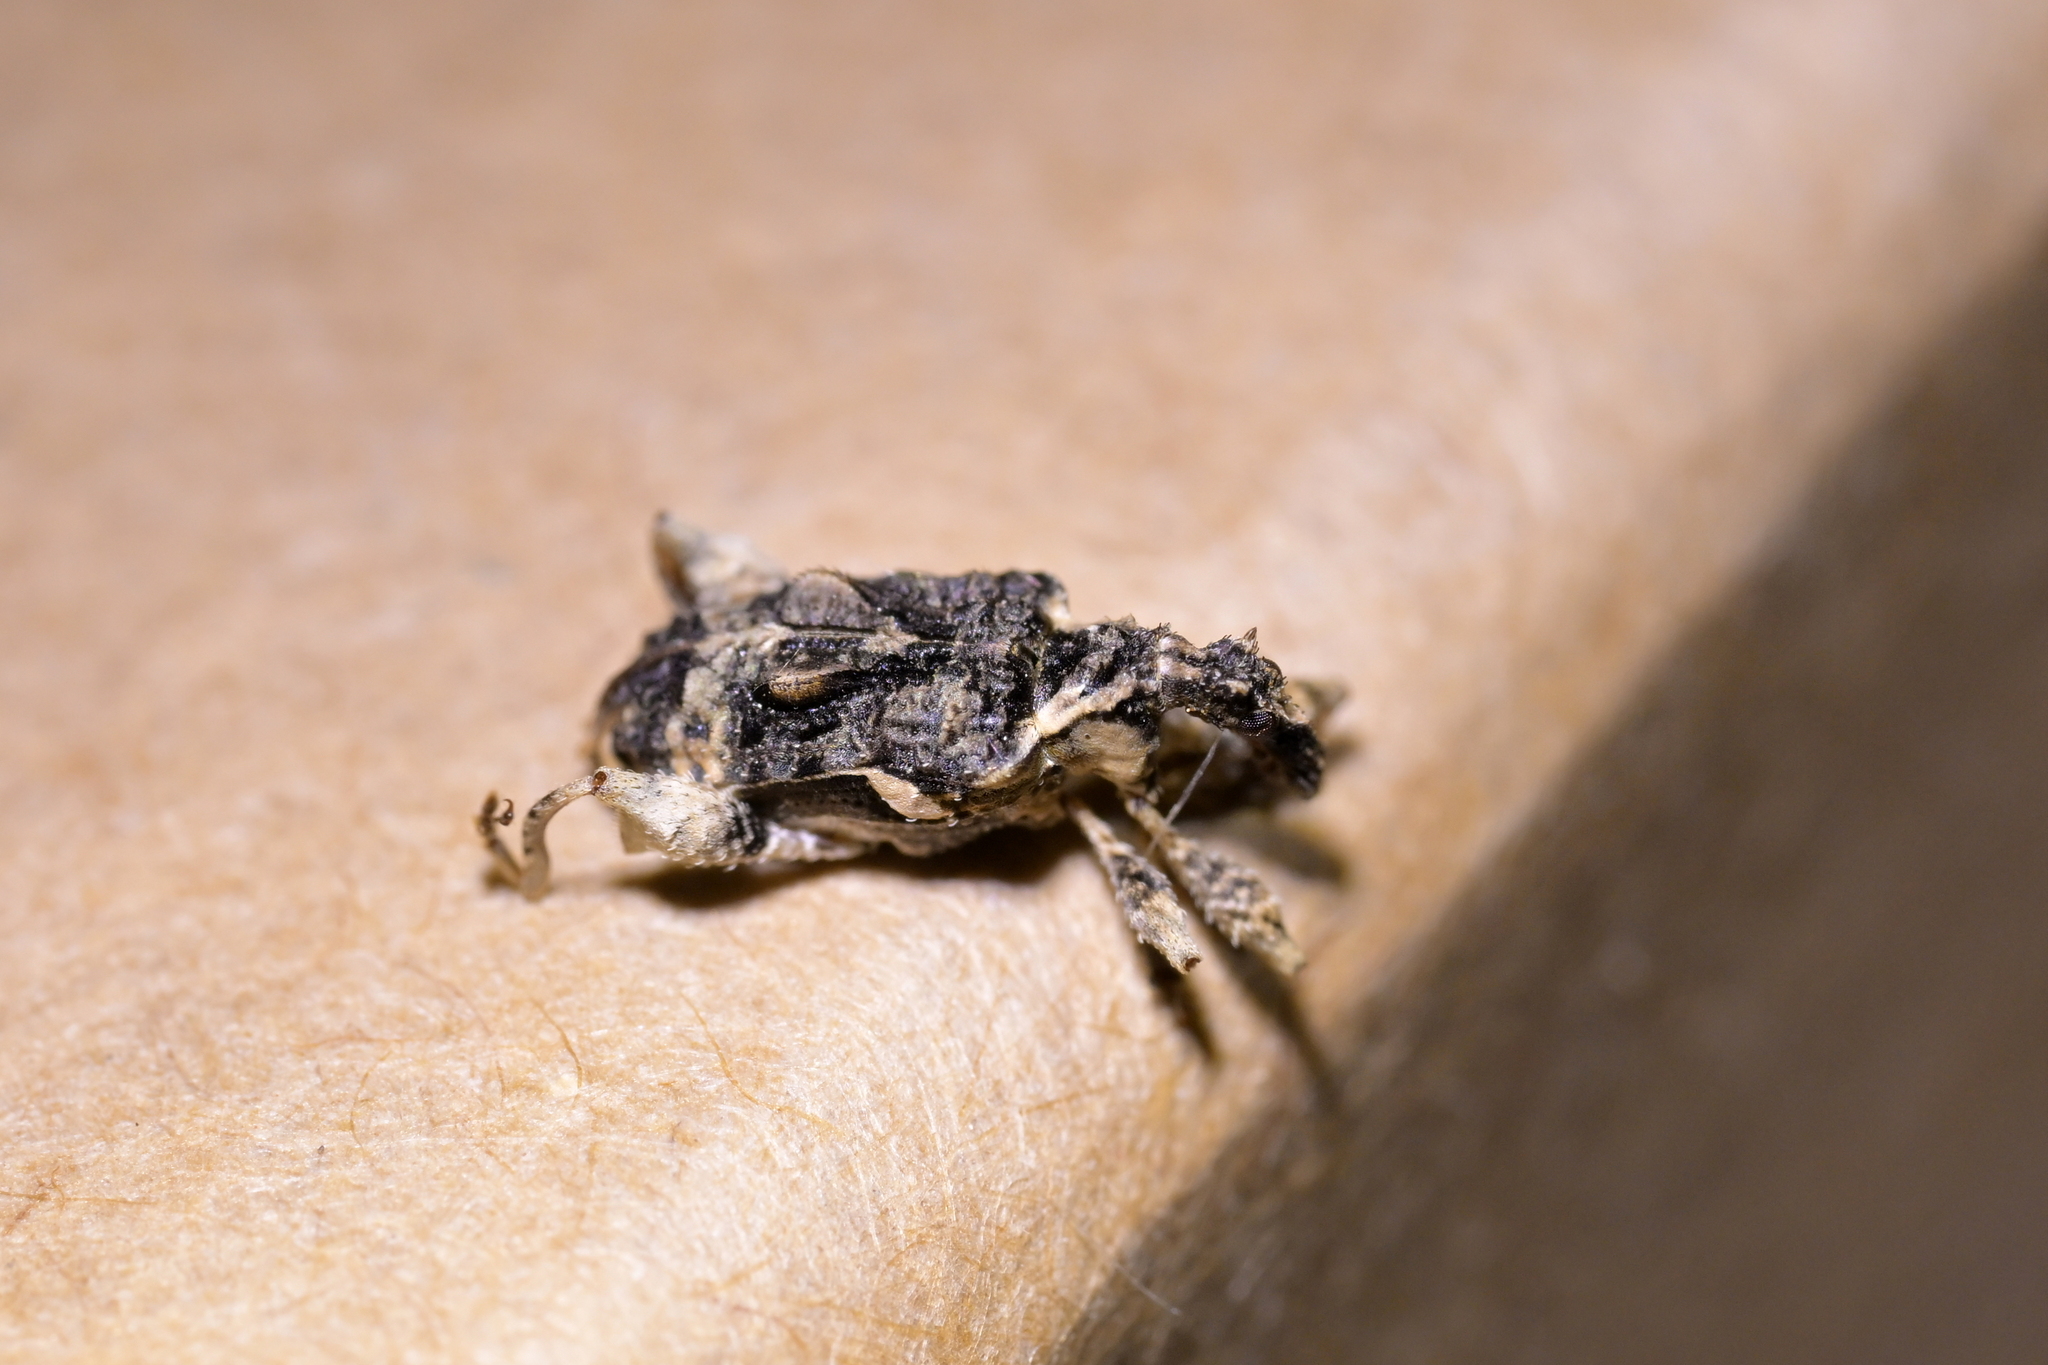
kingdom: Animalia
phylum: Arthropoda
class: Insecta
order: Coleoptera
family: Curculionidae
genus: Stephanorhynchus
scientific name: Stephanorhynchus curvipes
